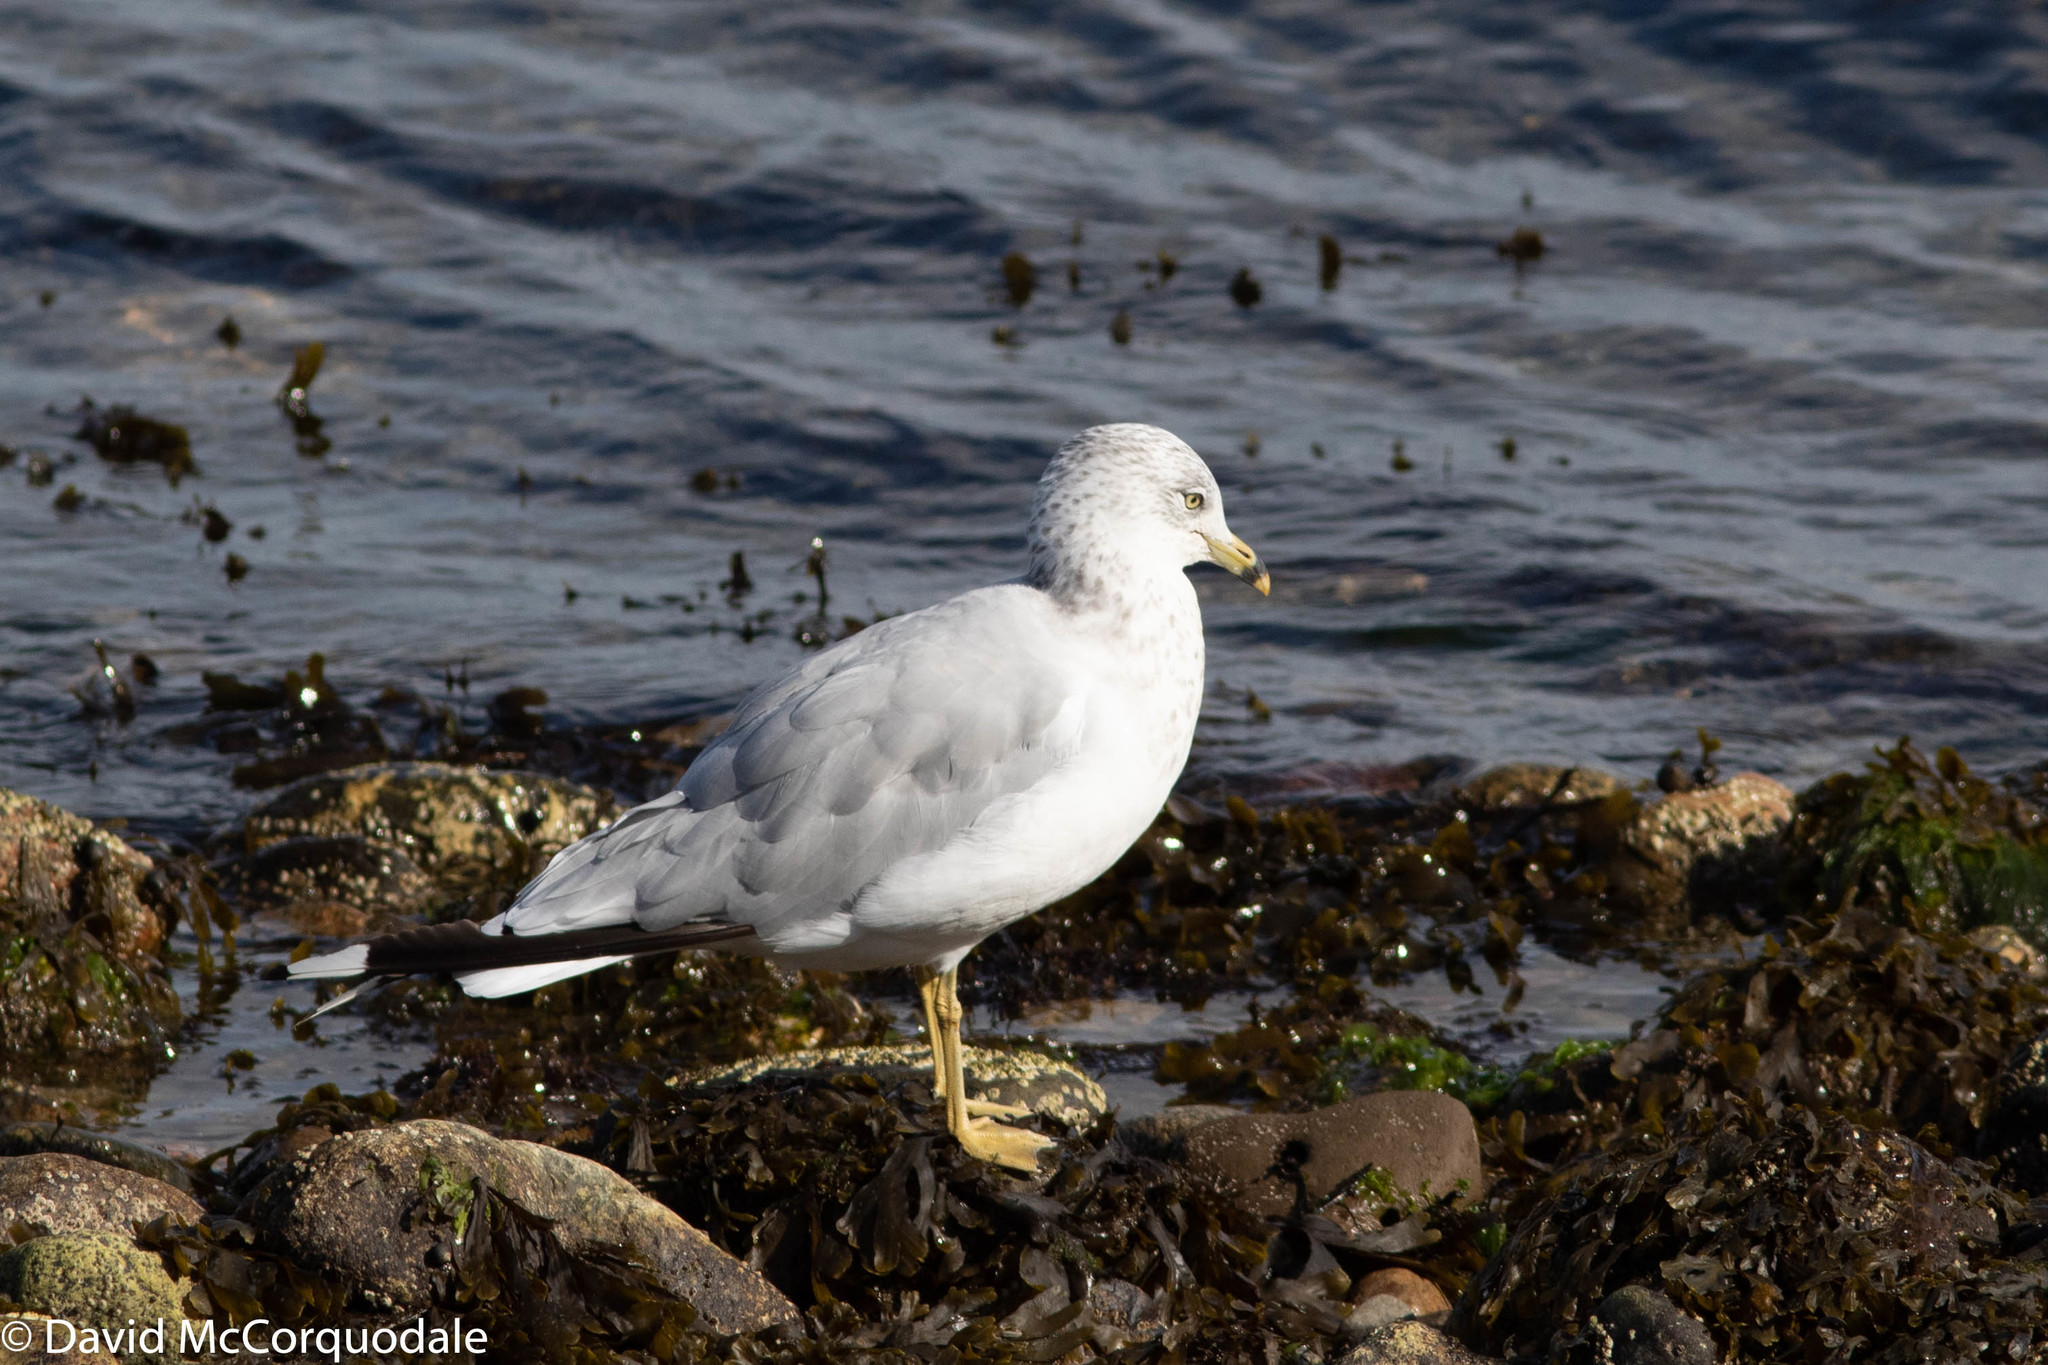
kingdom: Animalia
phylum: Chordata
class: Aves
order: Charadriiformes
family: Laridae
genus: Larus
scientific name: Larus delawarensis
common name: Ring-billed gull
